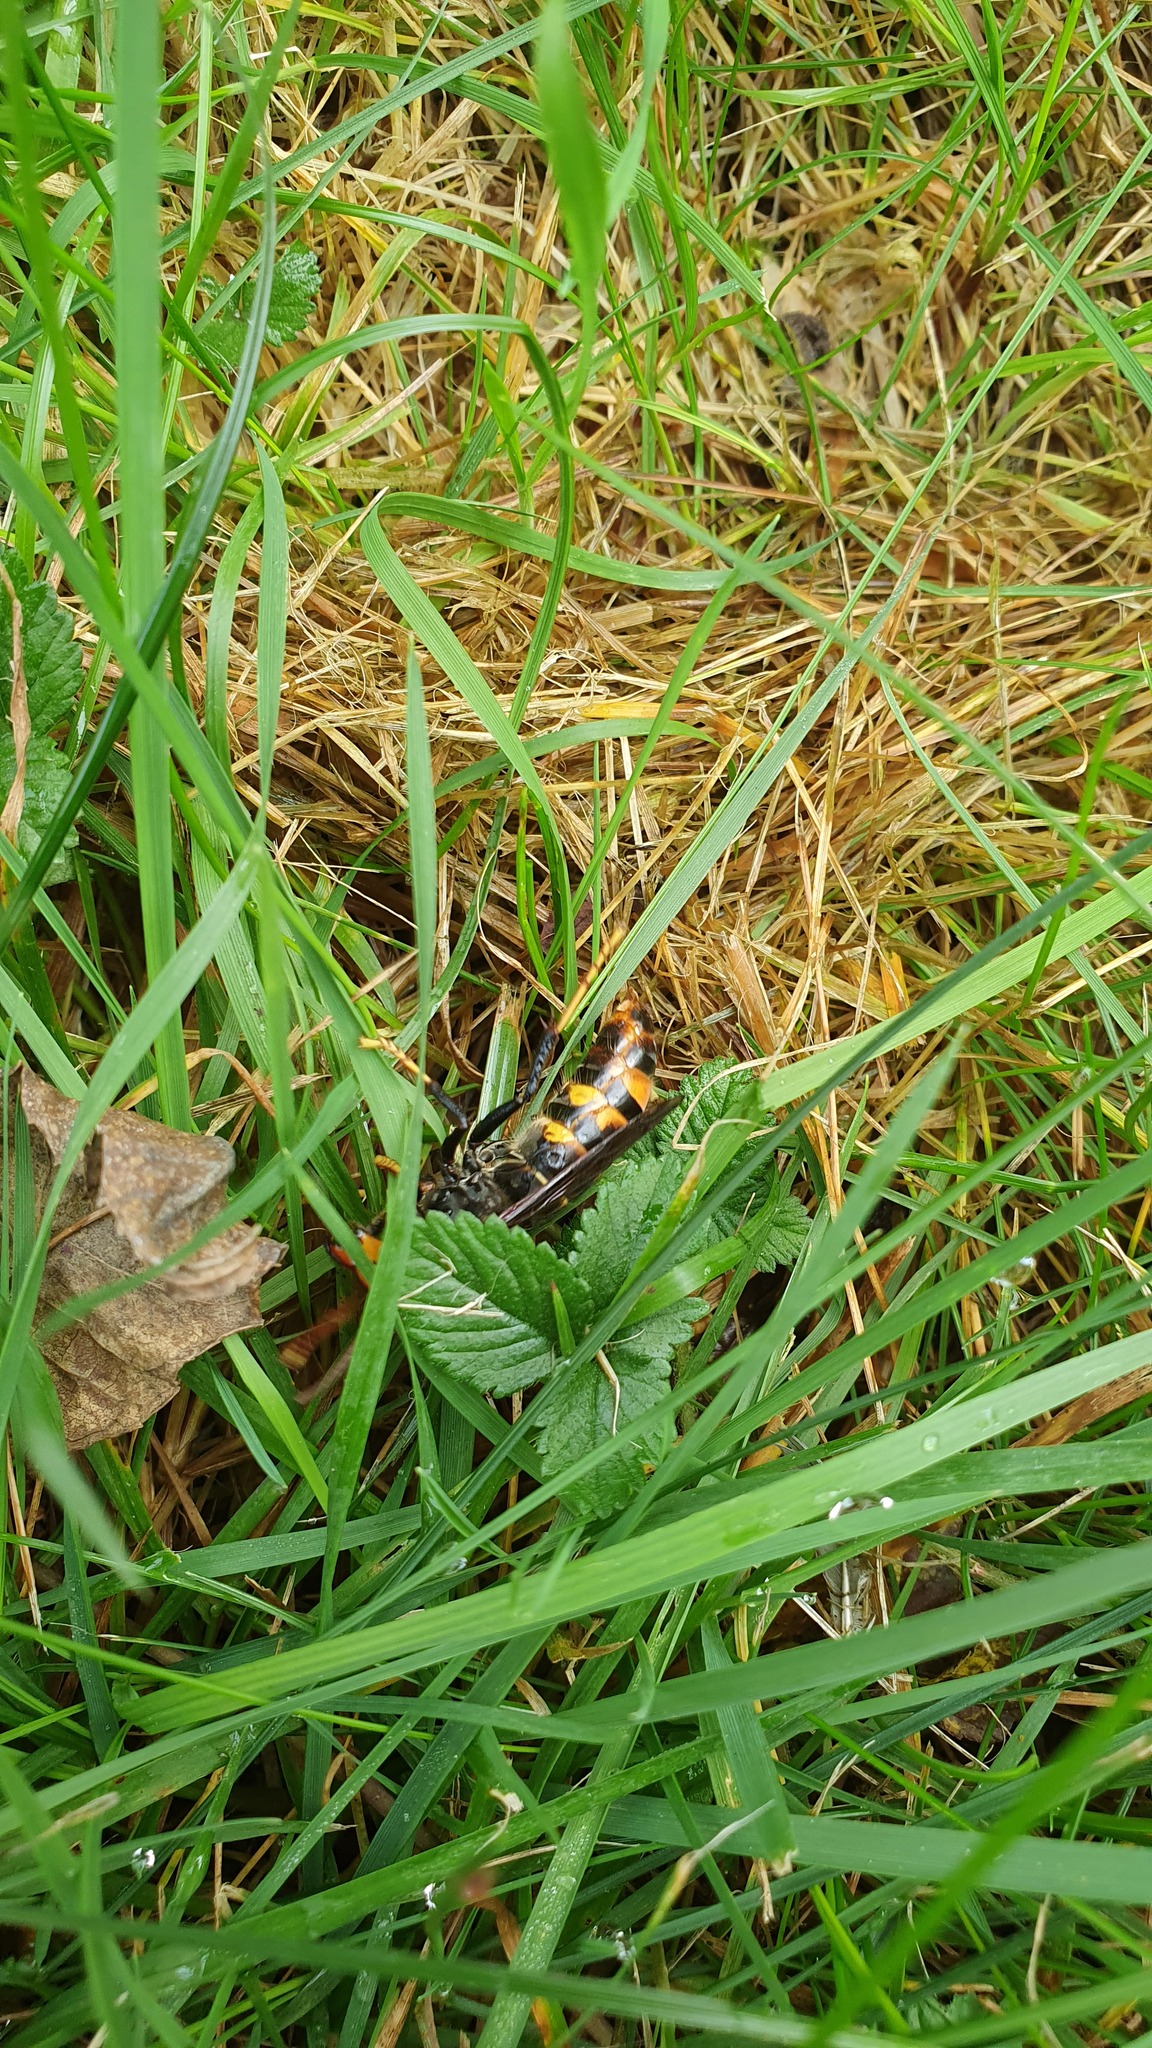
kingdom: Animalia
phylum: Arthropoda
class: Insecta
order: Hymenoptera
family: Vespidae
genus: Vespa
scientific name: Vespa velutina
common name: Asian hornet
